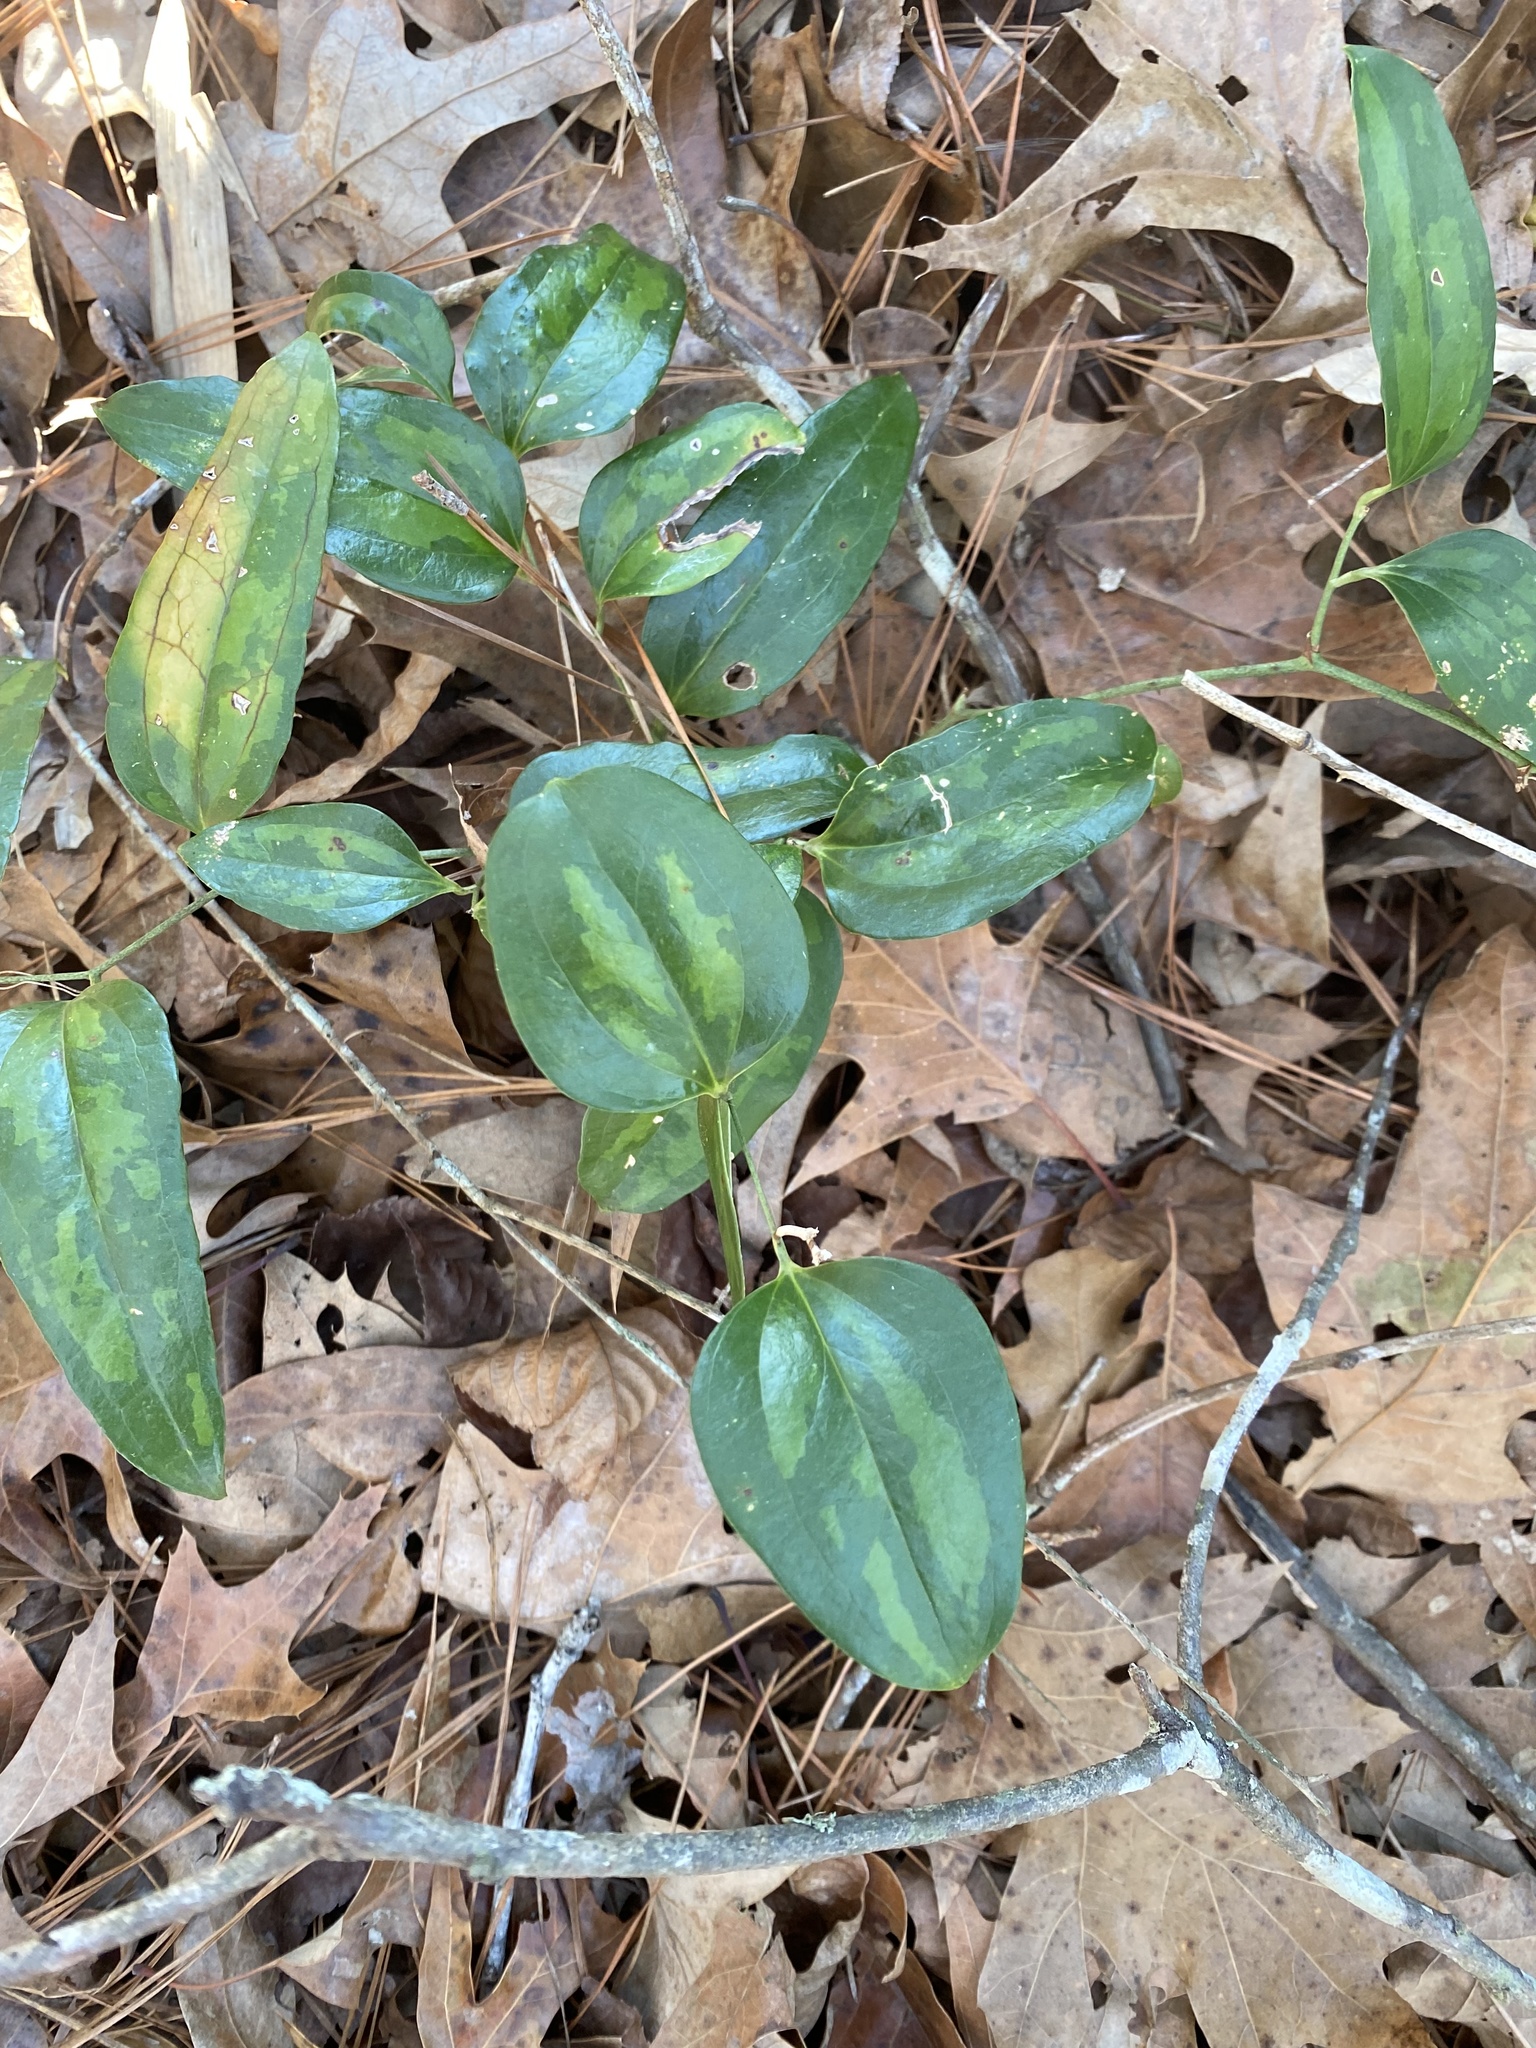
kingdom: Plantae
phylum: Tracheophyta
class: Liliopsida
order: Liliales
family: Smilacaceae
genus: Smilax
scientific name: Smilax glauca
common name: Cat greenbrier
